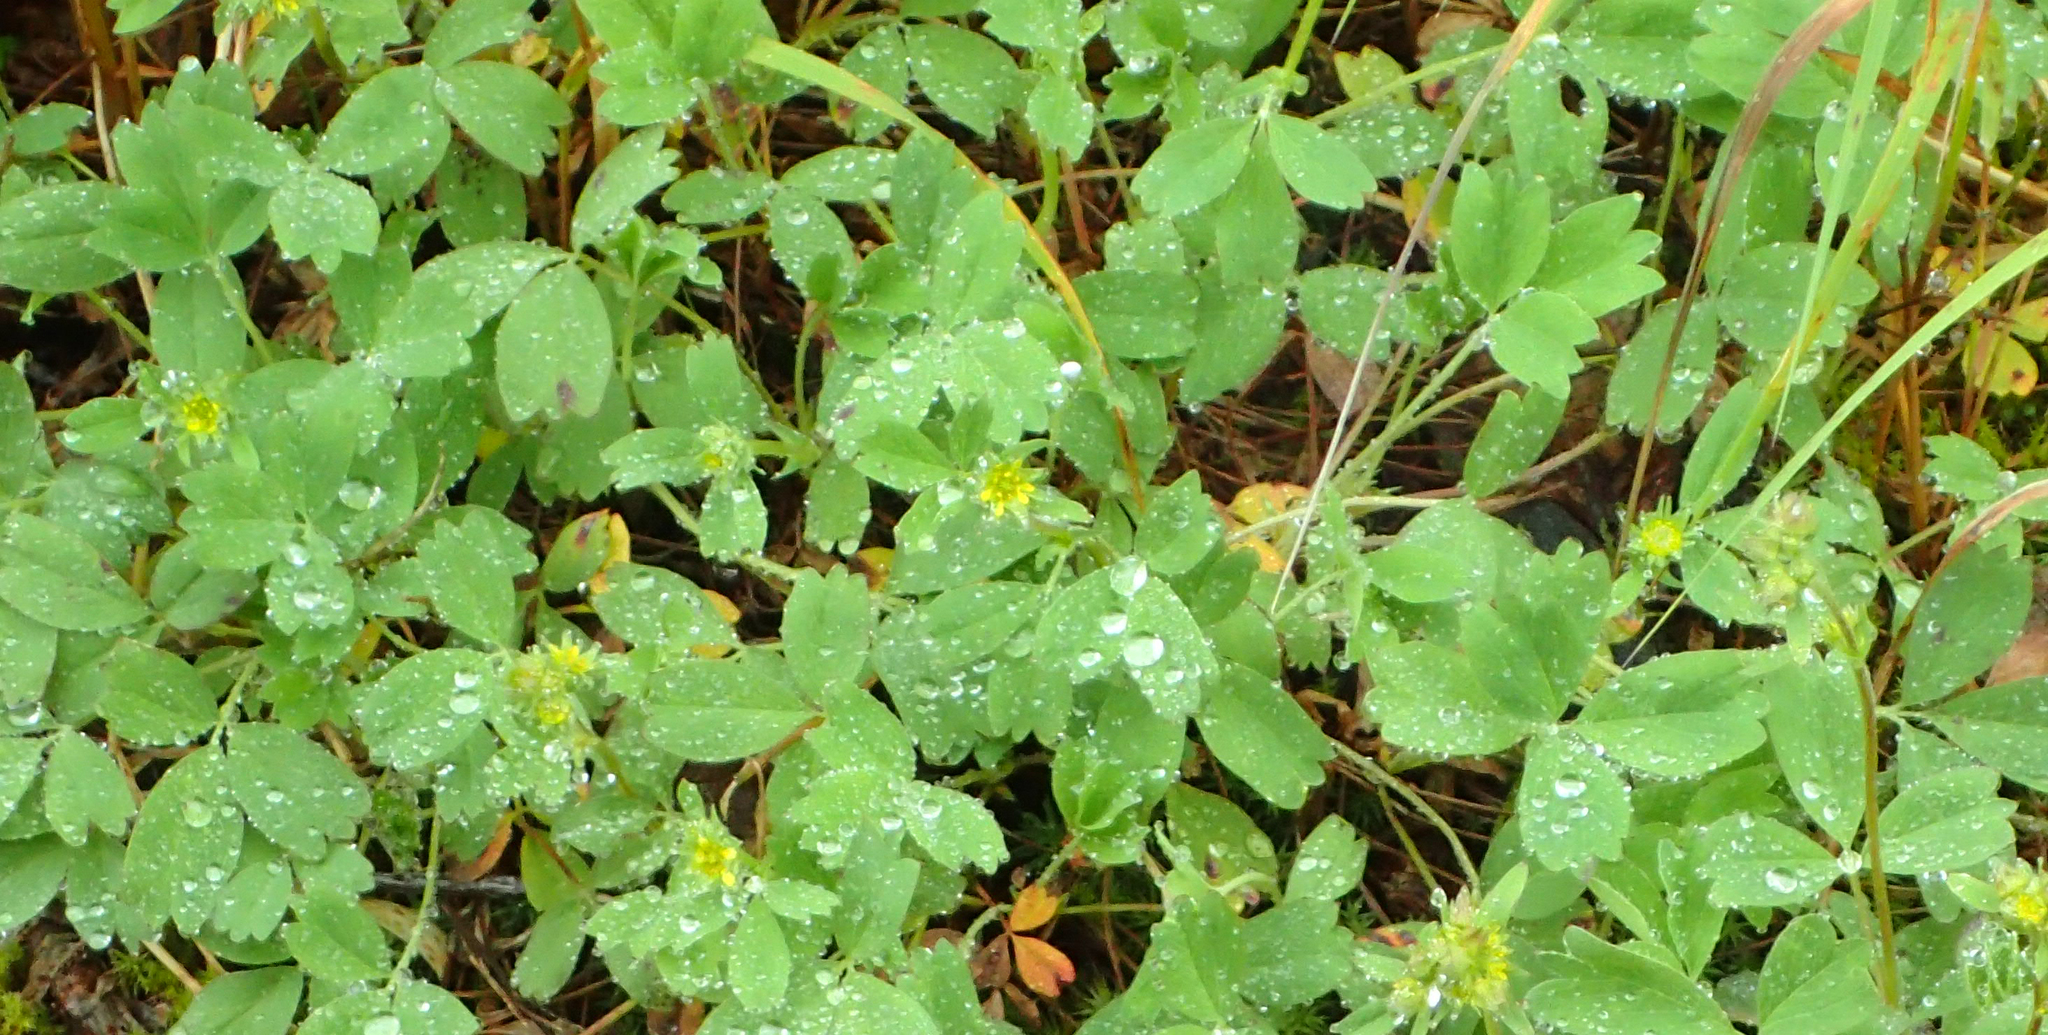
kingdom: Plantae
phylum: Tracheophyta
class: Magnoliopsida
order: Rosales
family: Rosaceae
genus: Sibbaldia
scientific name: Sibbaldia procumbens
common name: Creeping sibbaldia
